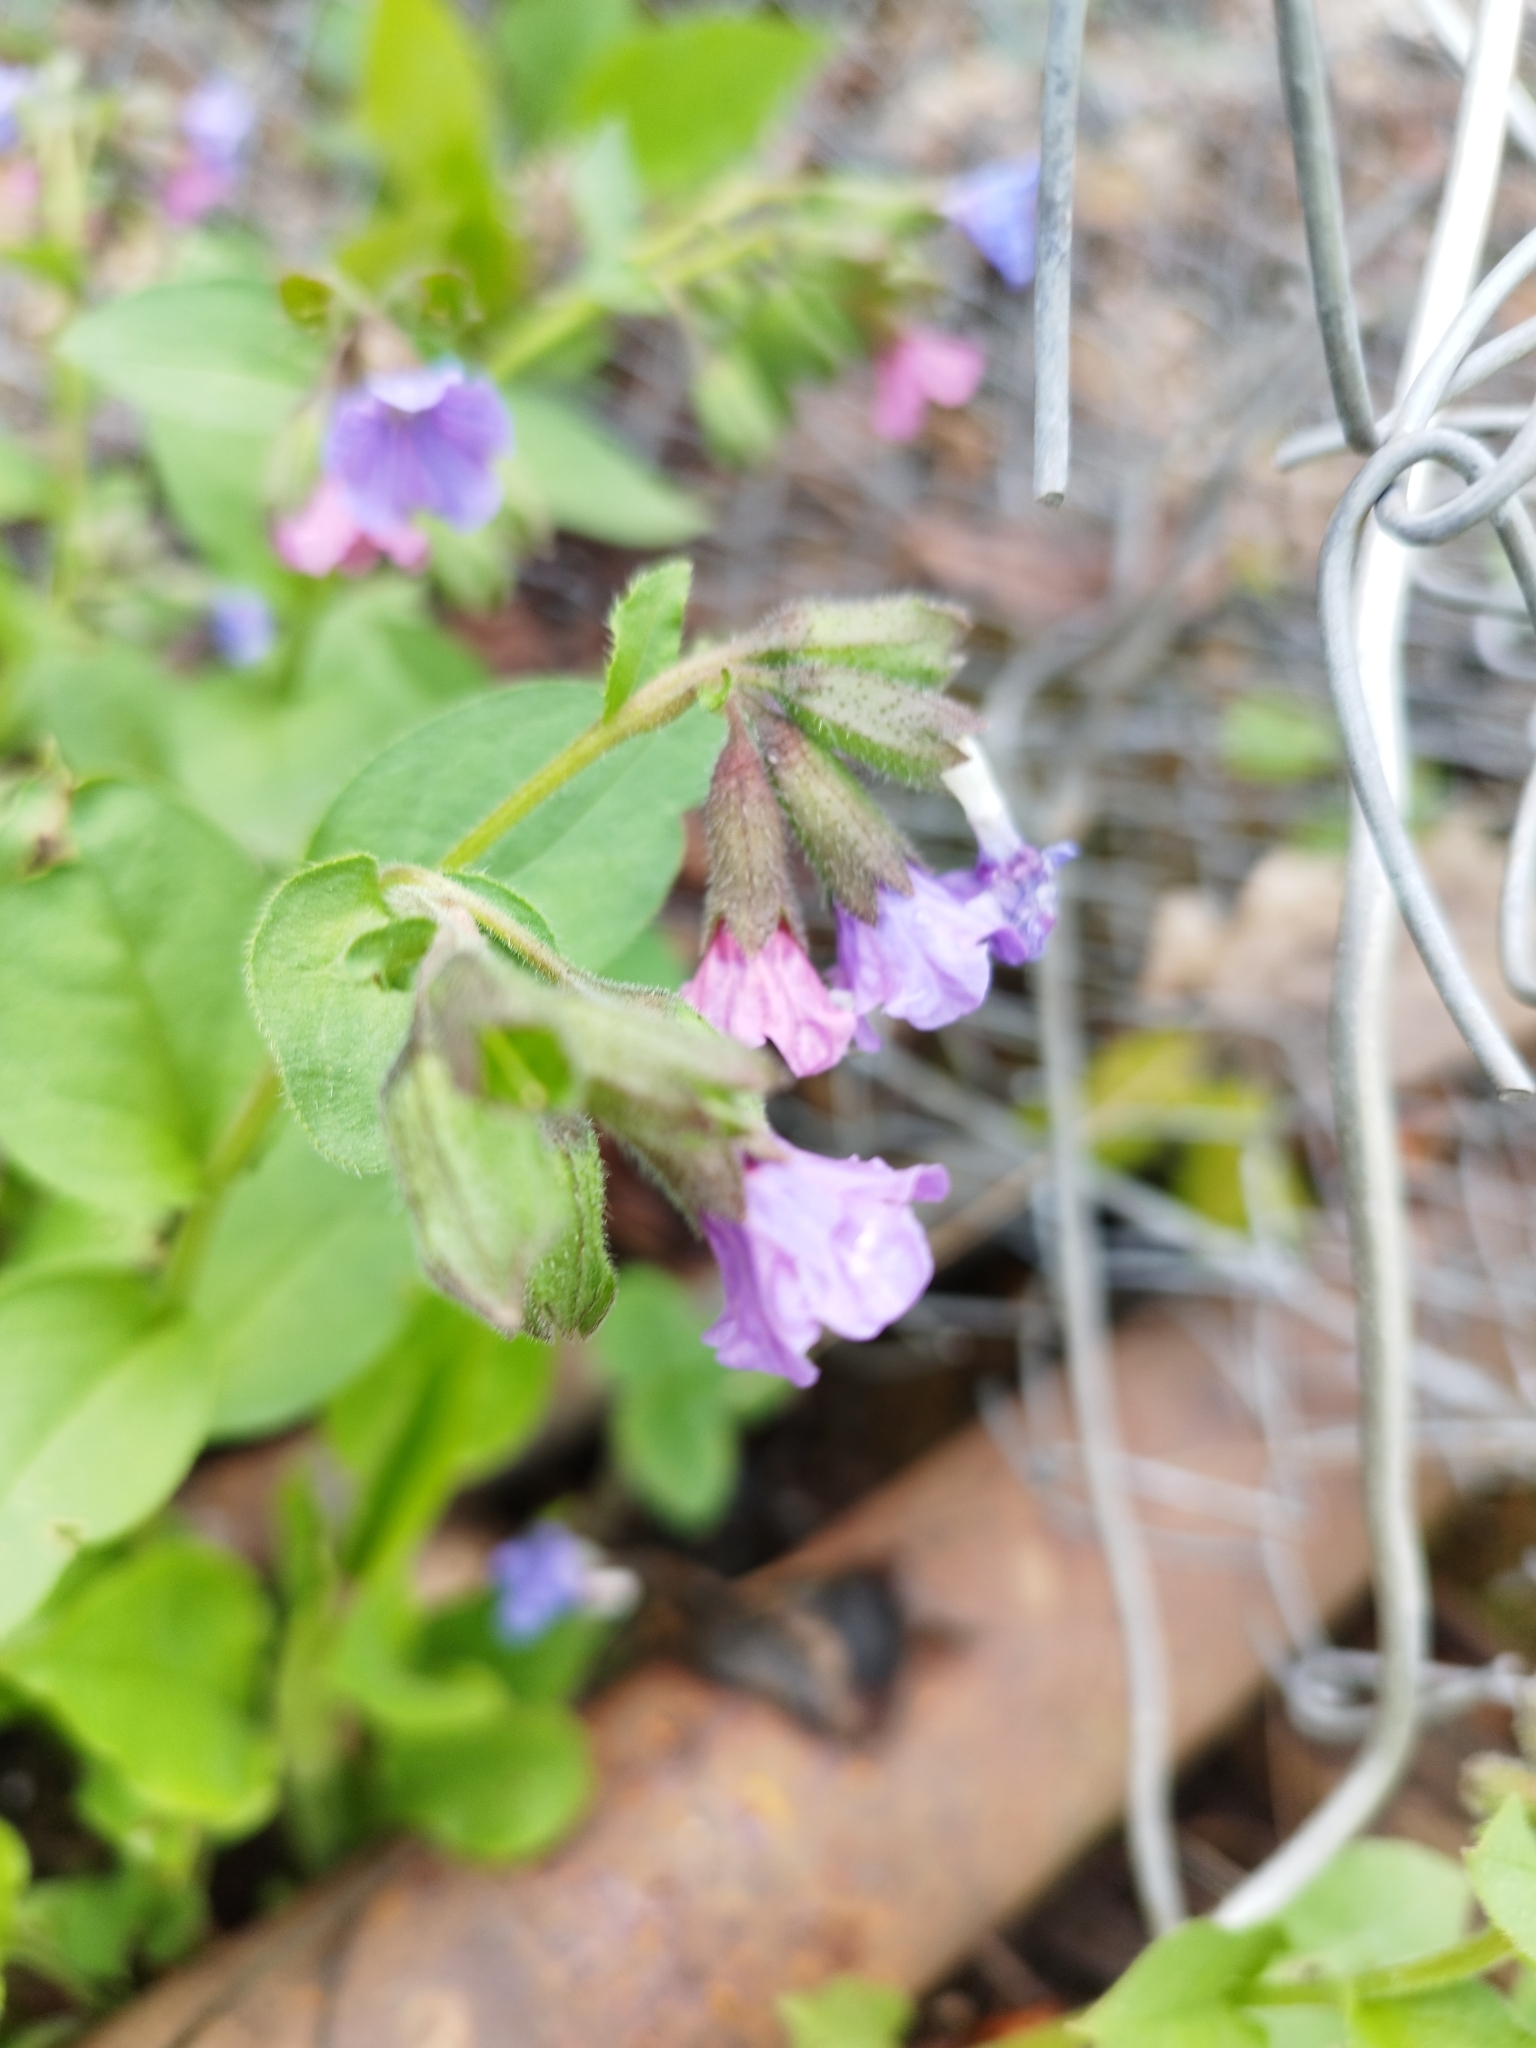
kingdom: Plantae
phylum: Tracheophyta
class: Magnoliopsida
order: Boraginales
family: Boraginaceae
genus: Pulmonaria
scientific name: Pulmonaria obscura
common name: Suffolk lungwort
